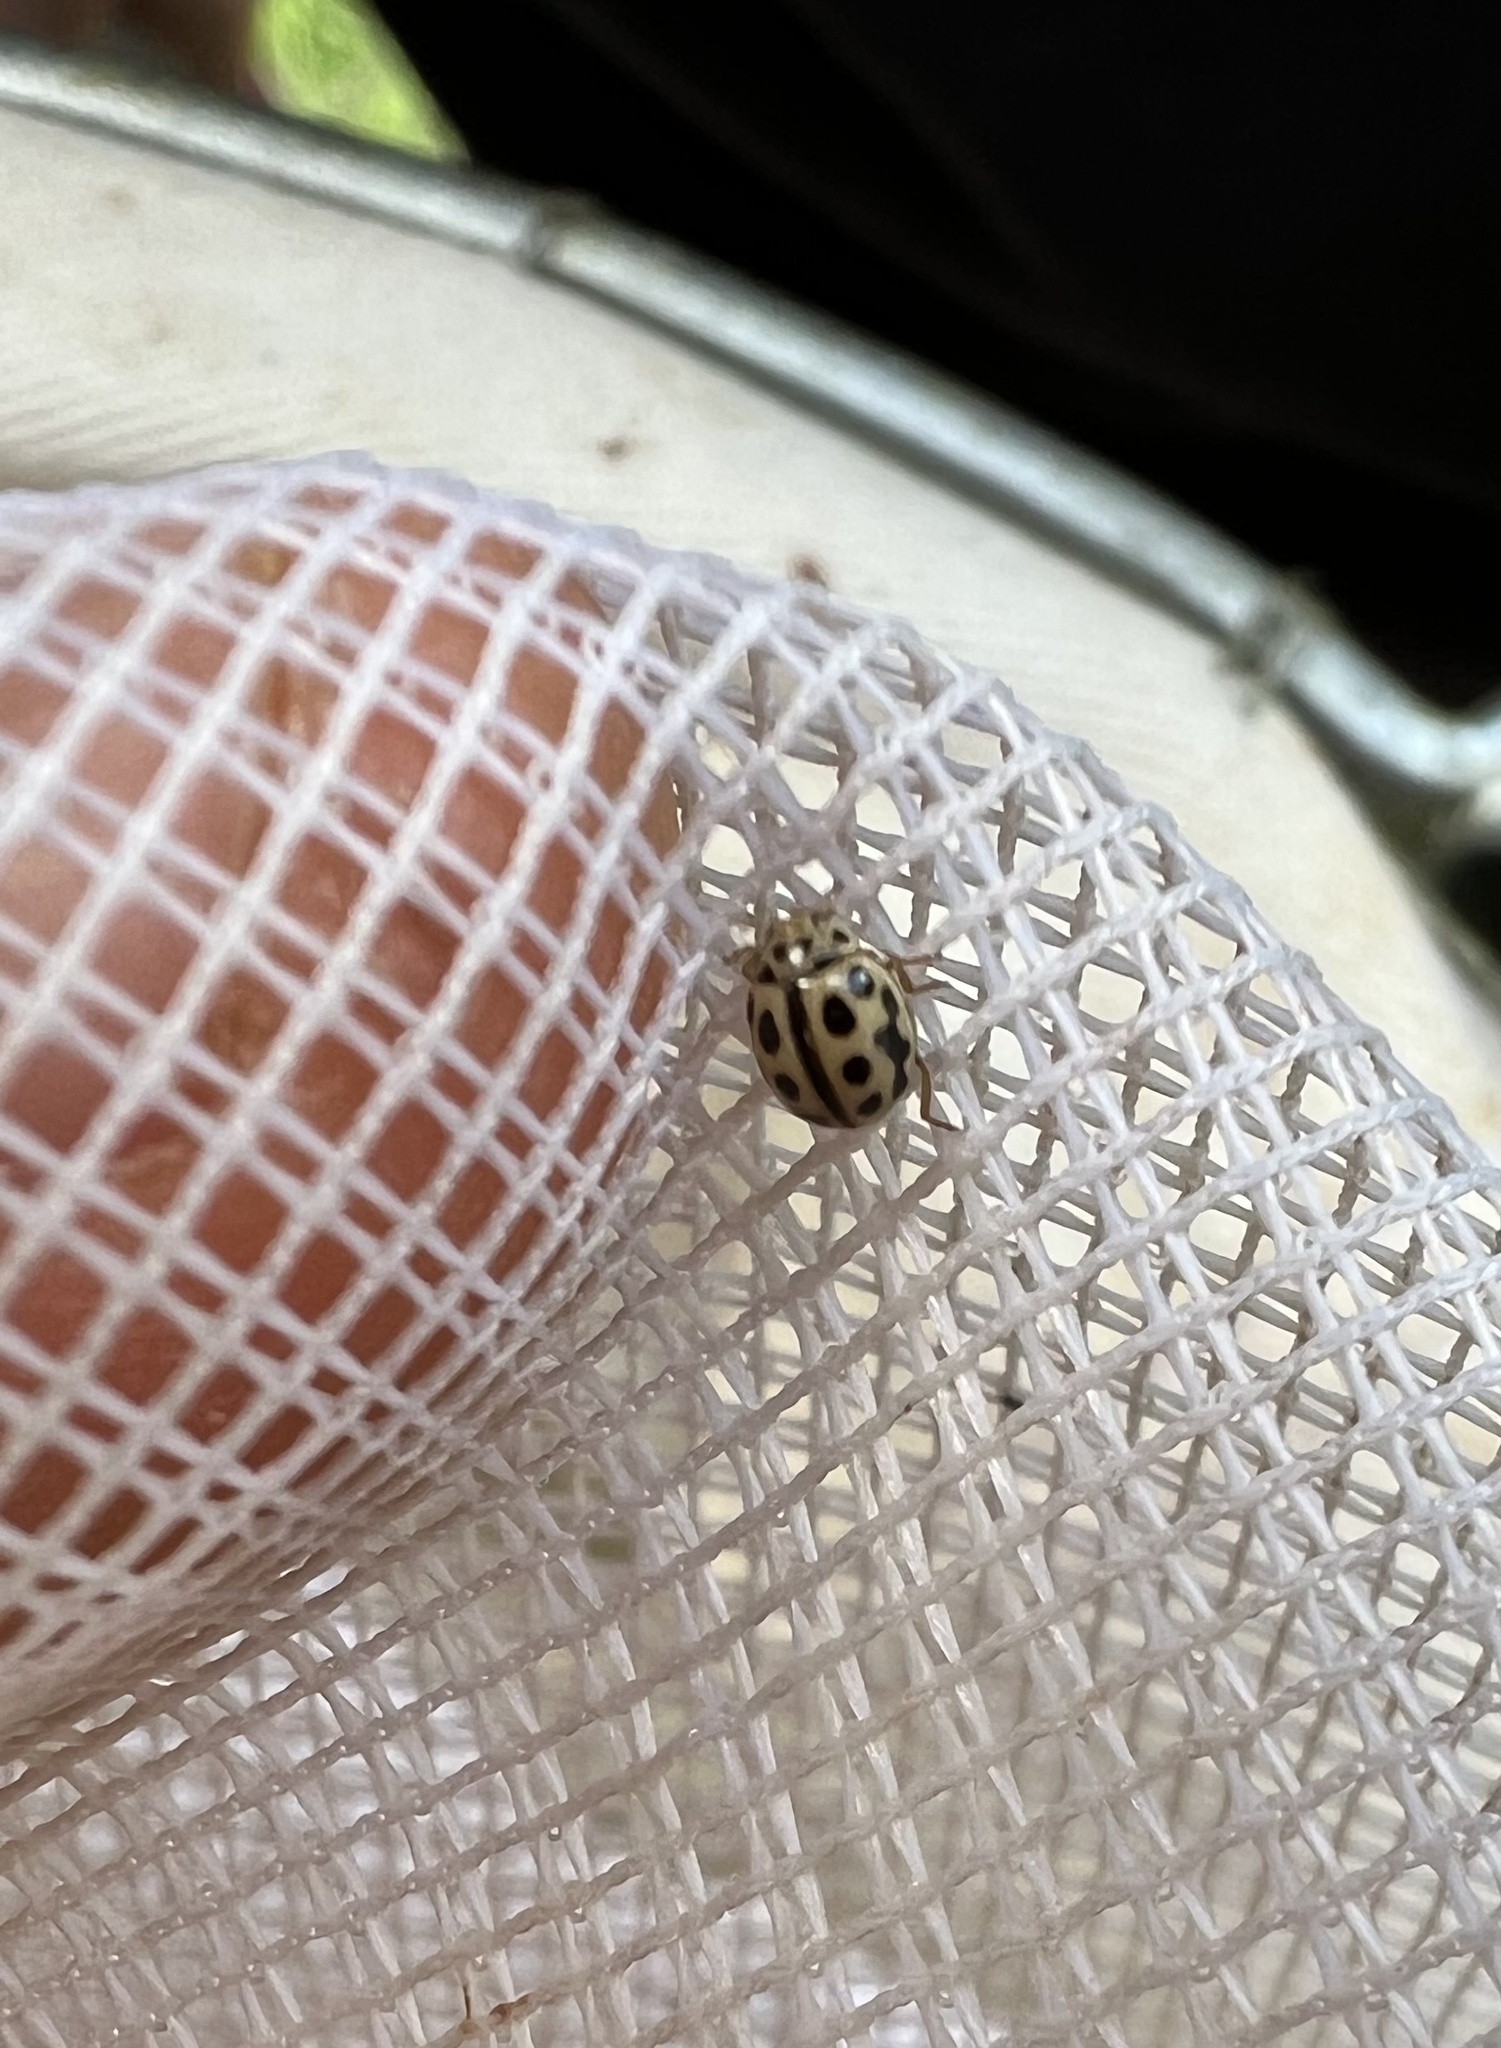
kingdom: Animalia
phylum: Arthropoda
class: Insecta
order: Coleoptera
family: Coccinellidae
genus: Tytthaspis
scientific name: Tytthaspis sedecimpunctata
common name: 16-spot ladybird
